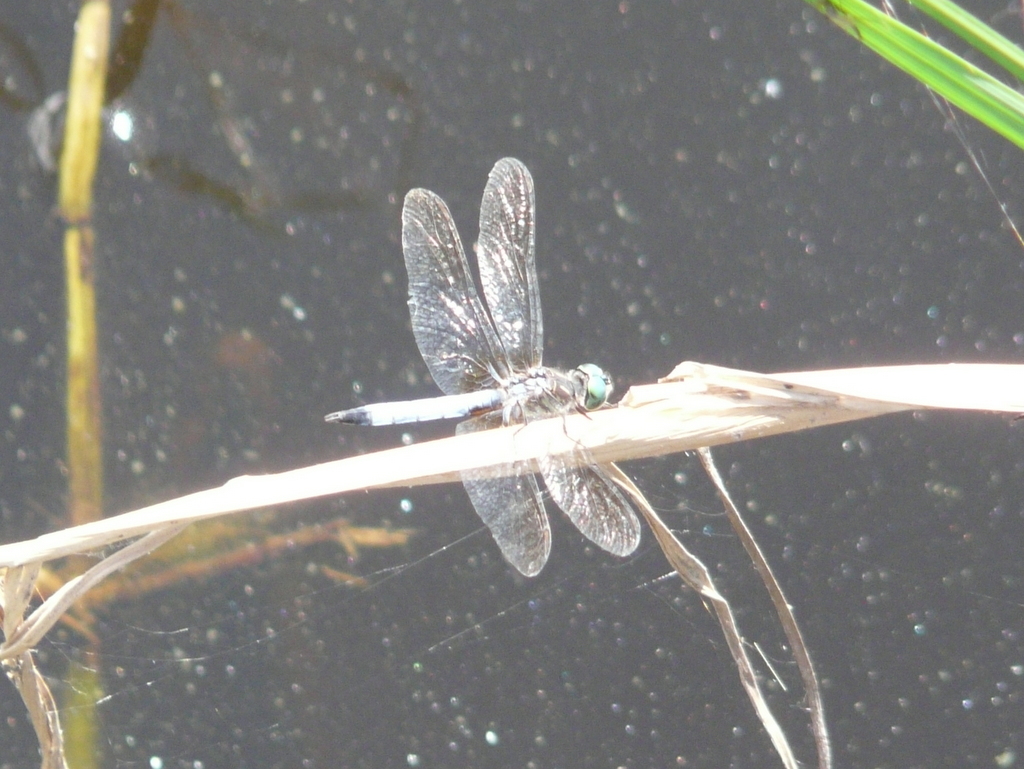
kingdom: Animalia
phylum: Arthropoda
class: Insecta
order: Odonata
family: Libellulidae
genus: Pachydiplax
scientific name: Pachydiplax longipennis
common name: Blue dasher
